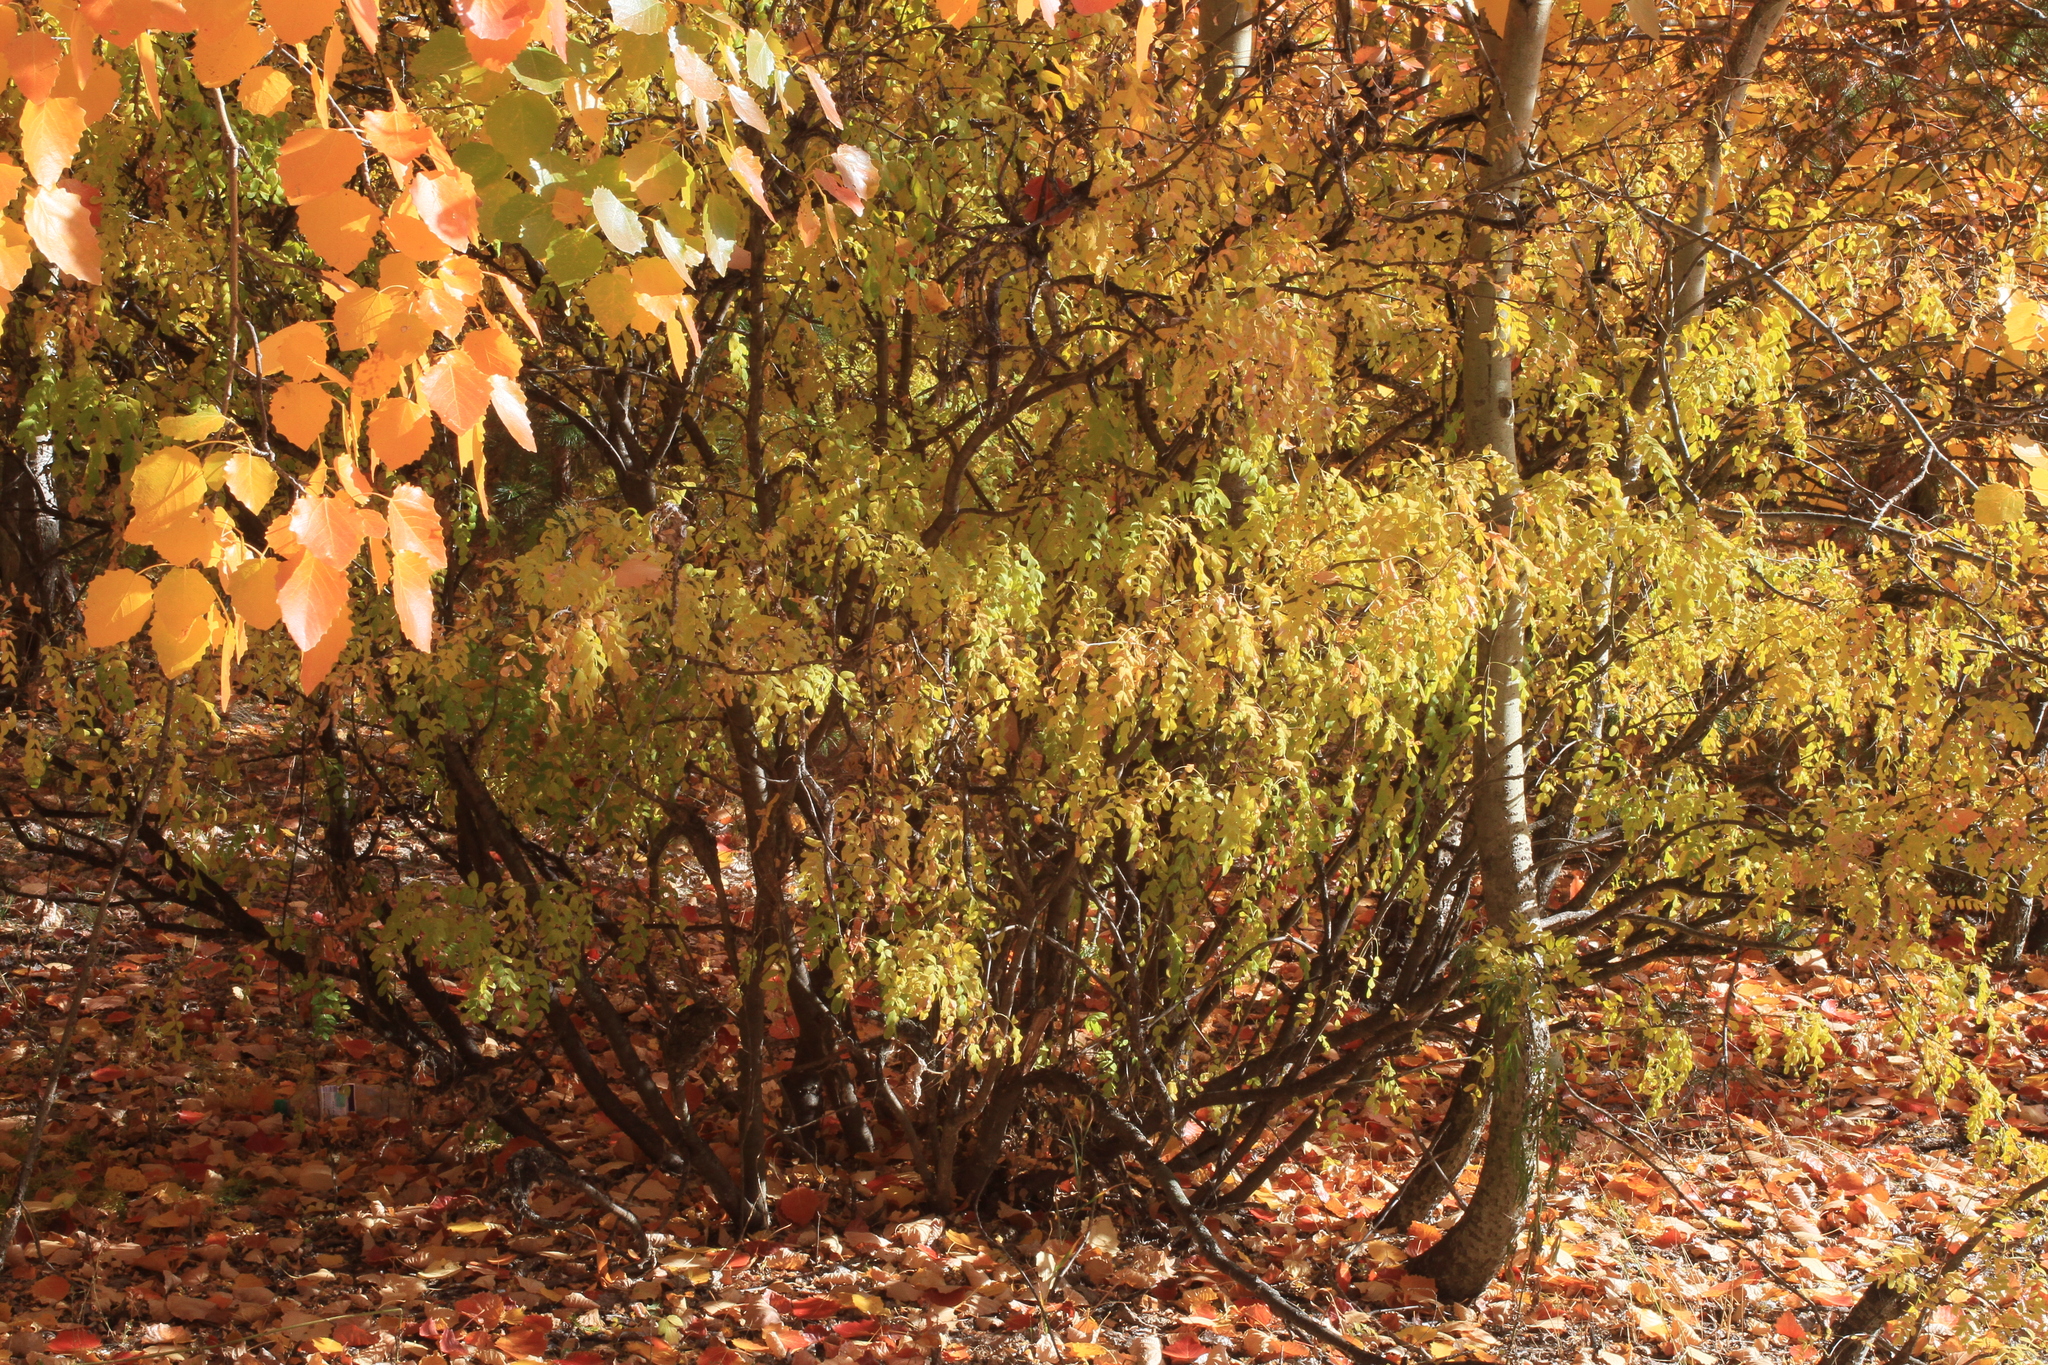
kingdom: Plantae
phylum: Tracheophyta
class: Magnoliopsida
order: Fabales
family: Fabaceae
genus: Caragana
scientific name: Caragana arborescens
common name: Siberian peashrub
